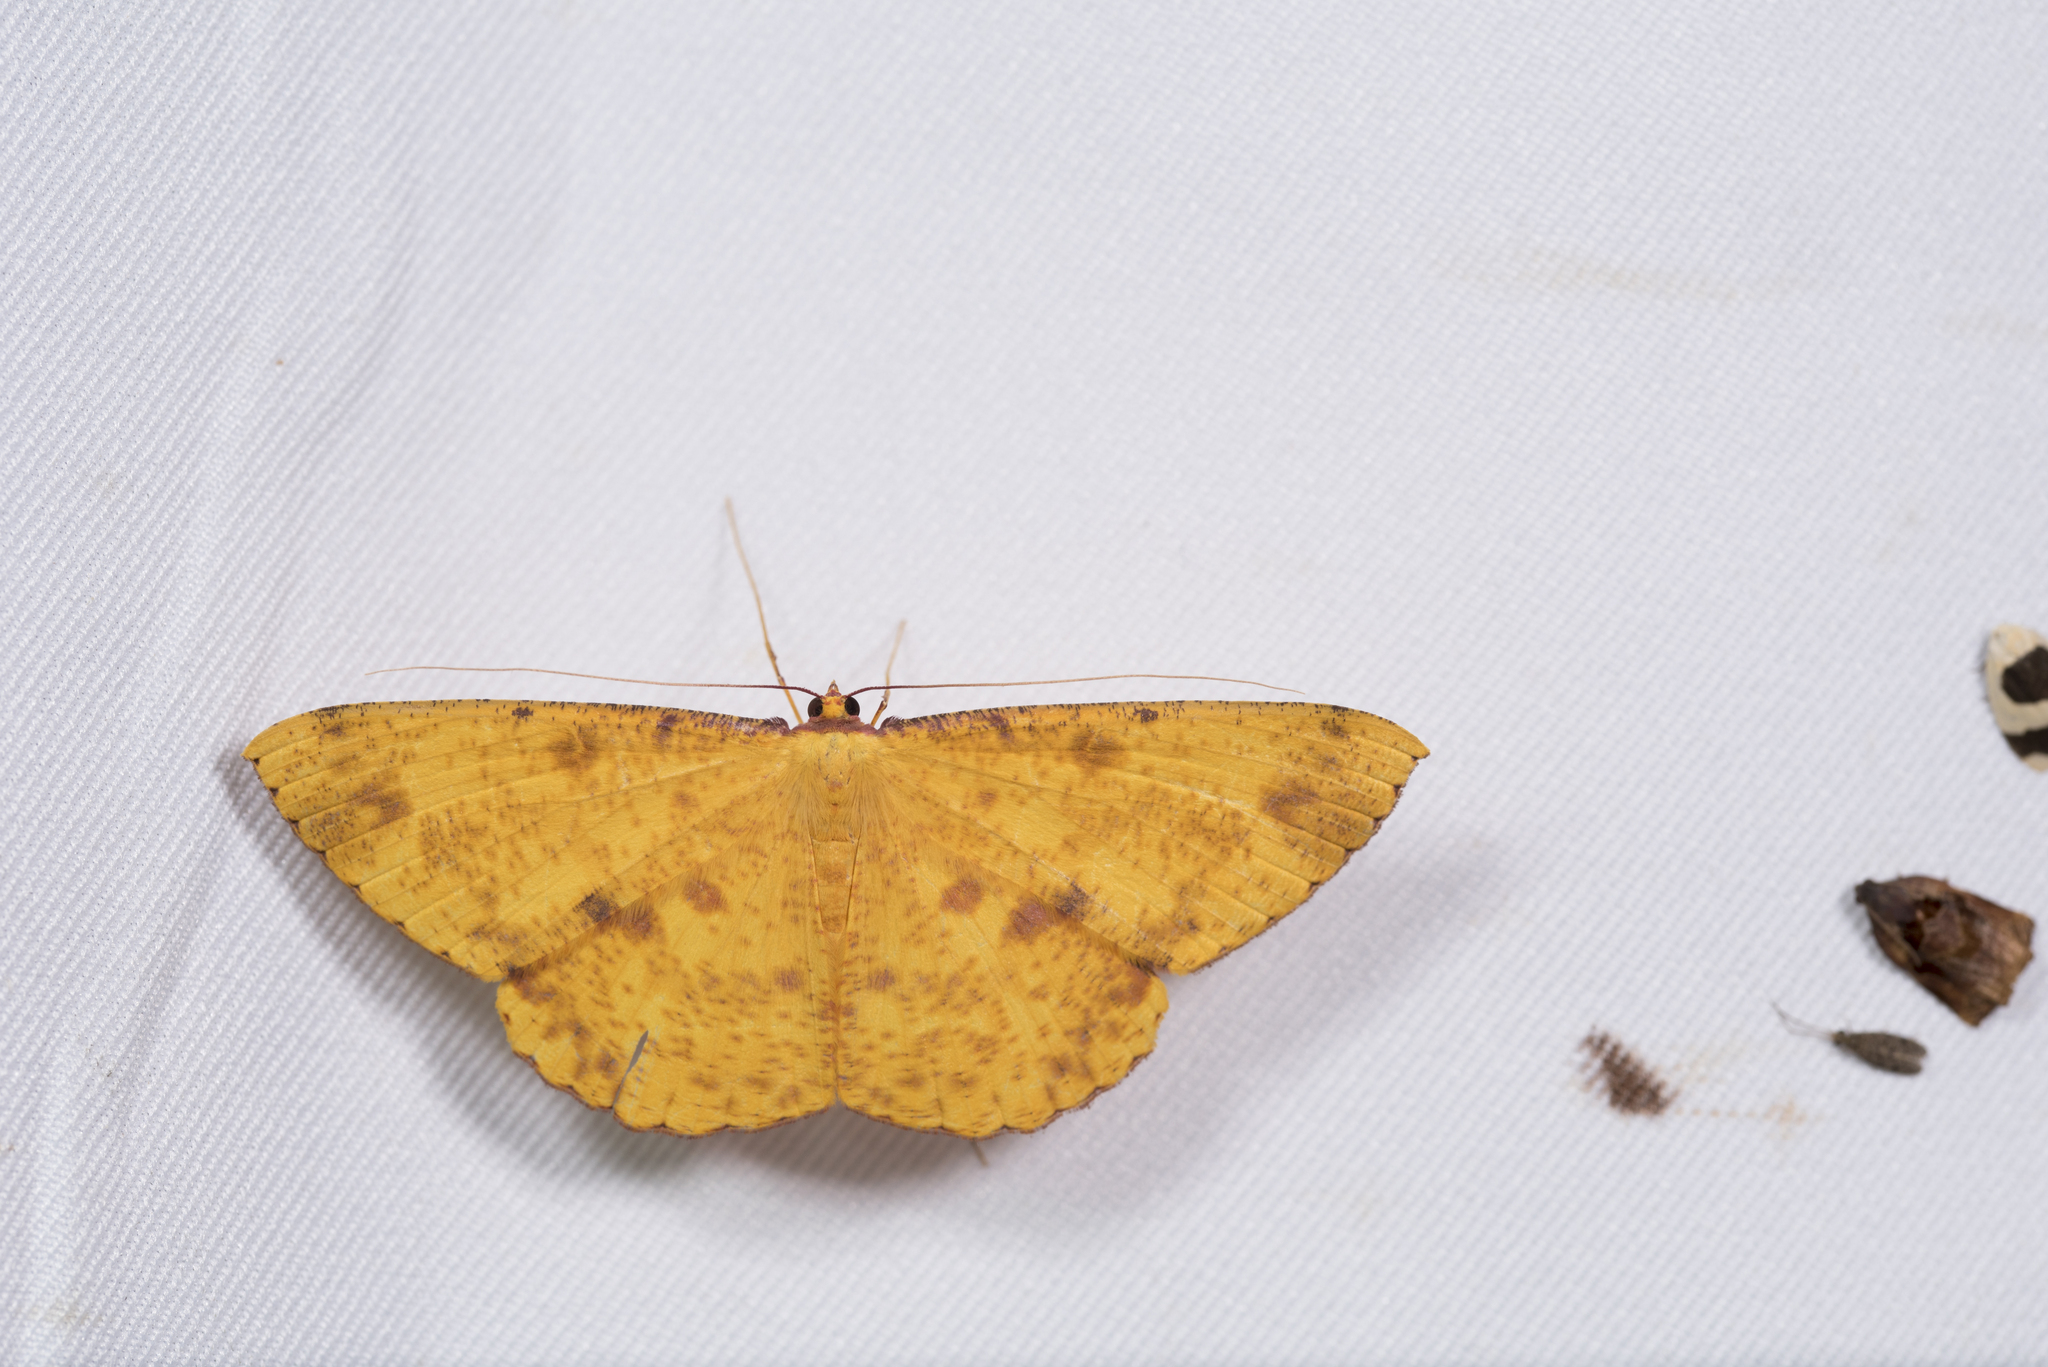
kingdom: Animalia
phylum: Arthropoda
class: Insecta
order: Lepidoptera
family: Geometridae
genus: Eumelea
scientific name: Eumelea ludovicata
